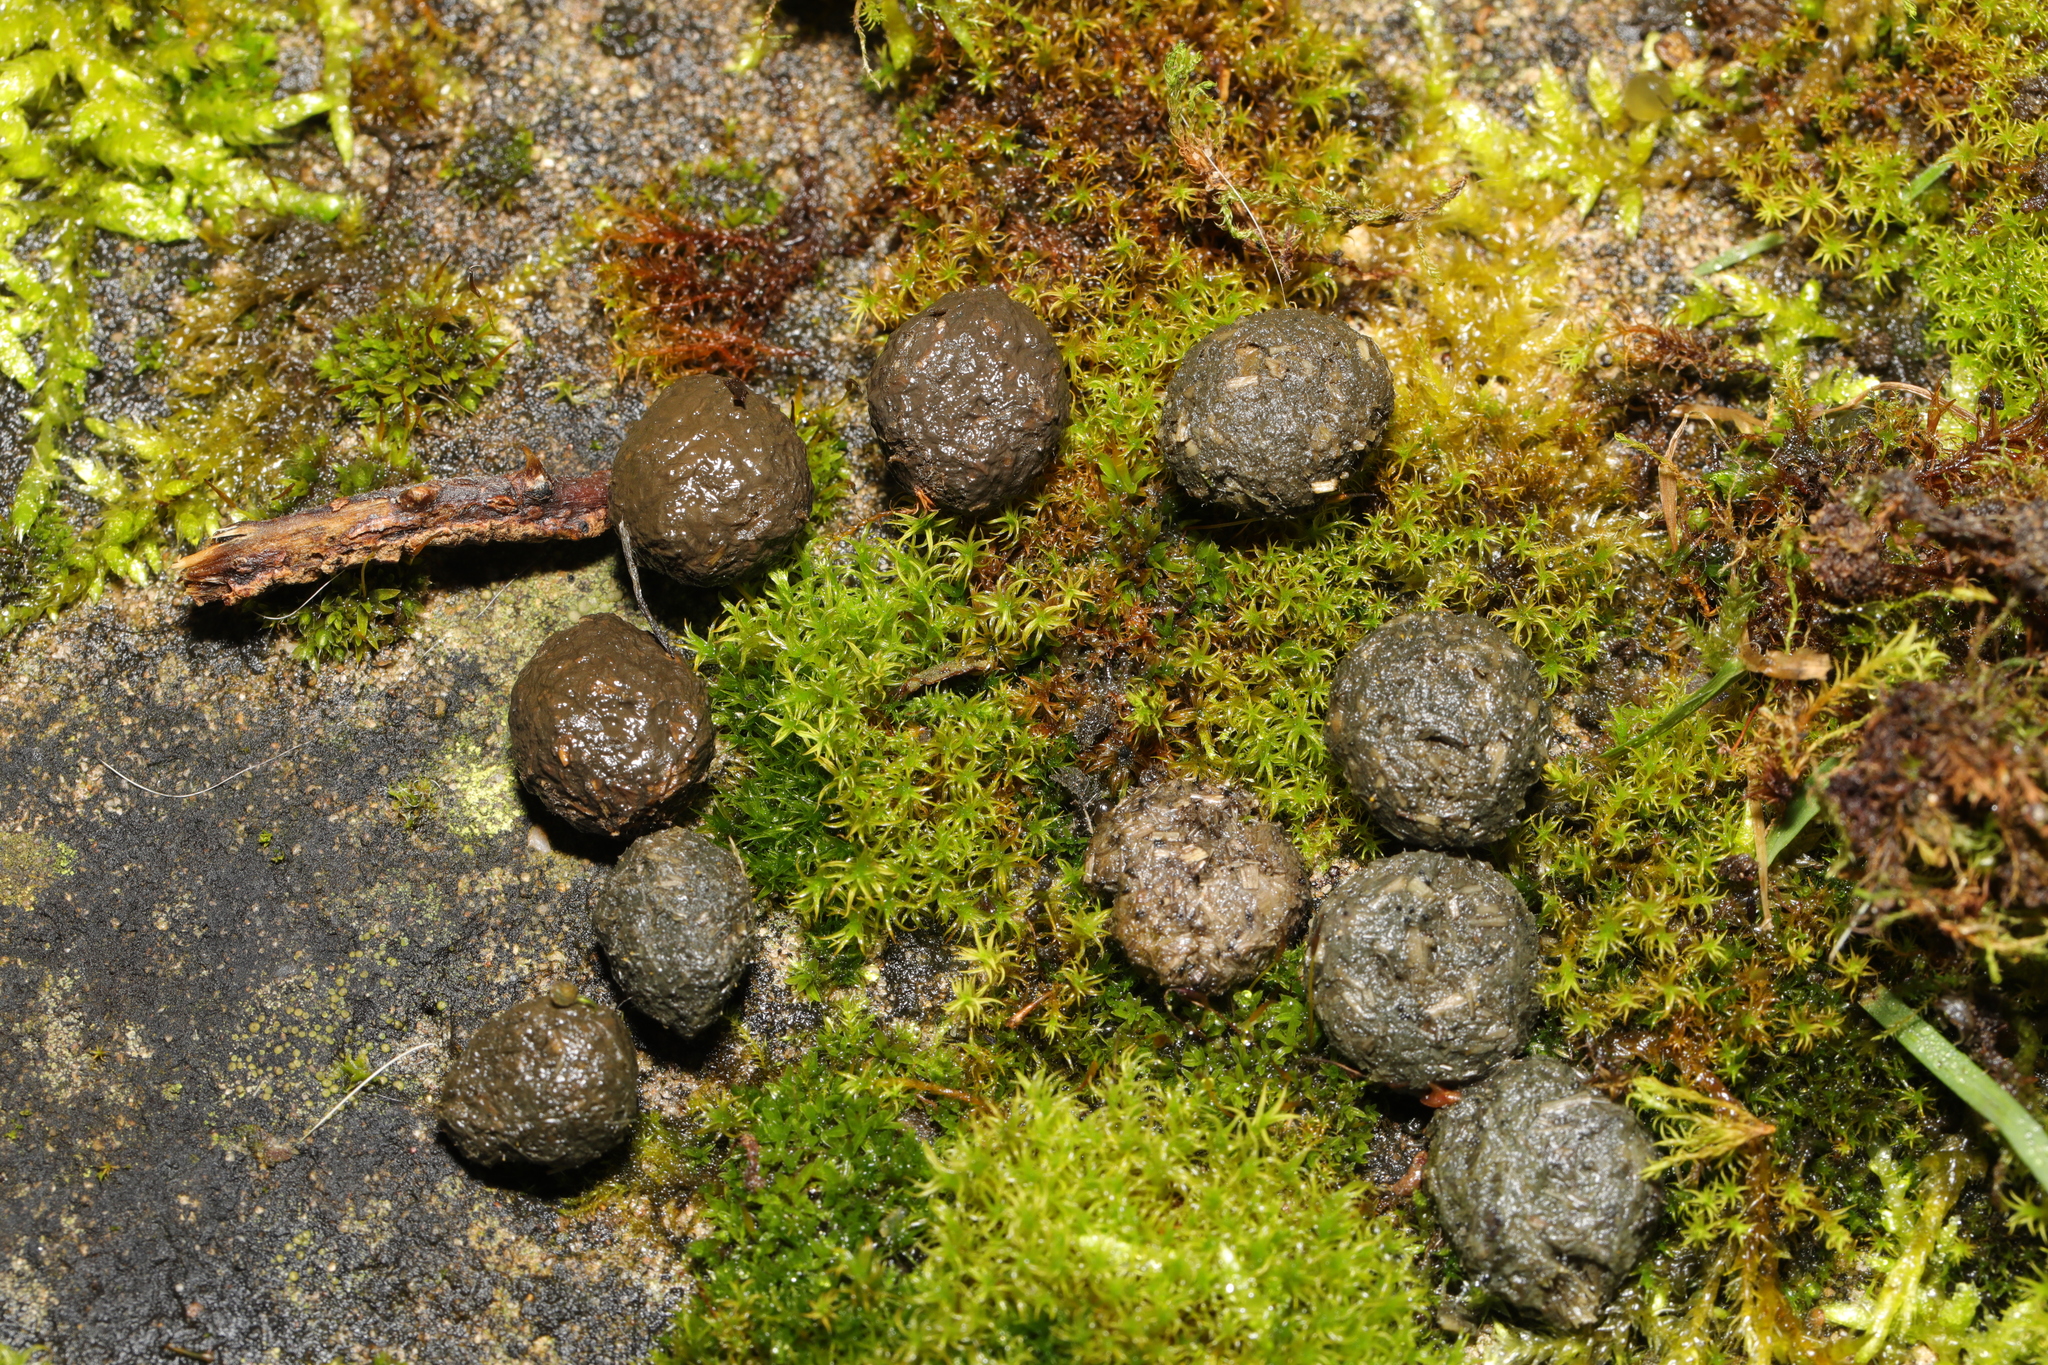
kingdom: Animalia
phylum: Chordata
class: Mammalia
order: Lagomorpha
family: Leporidae
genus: Oryctolagus
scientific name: Oryctolagus cuniculus
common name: European rabbit
